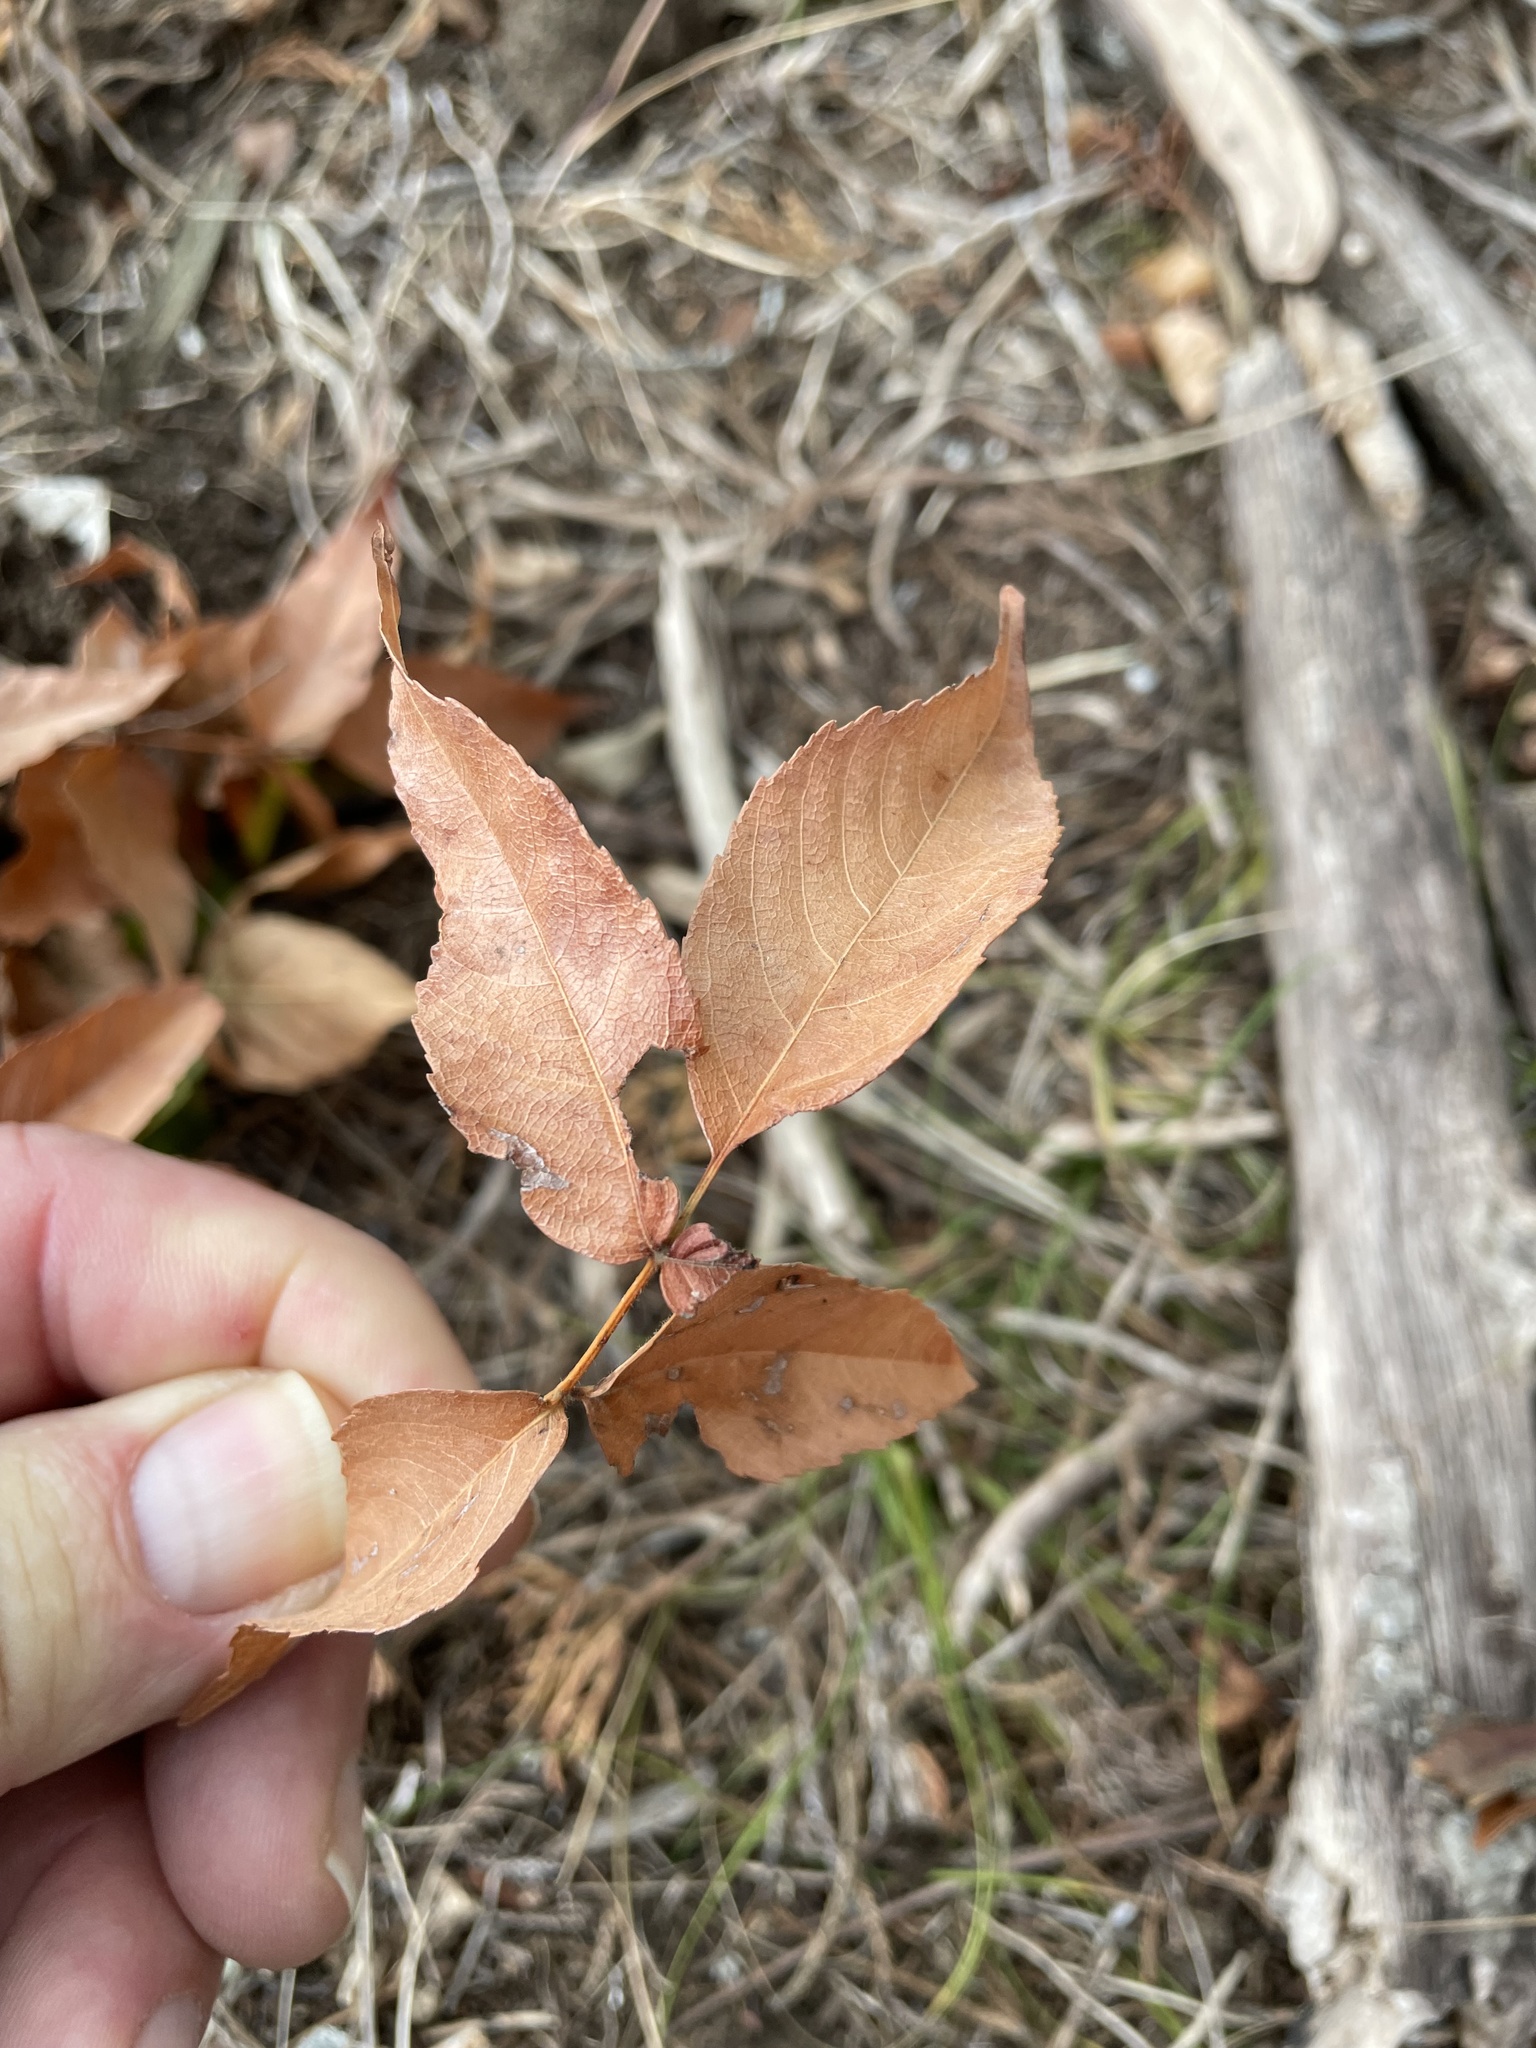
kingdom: Plantae
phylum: Tracheophyta
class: Magnoliopsida
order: Sapindales
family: Sapindaceae
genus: Ungnadia
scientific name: Ungnadia speciosa
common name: Texas-buckeye
